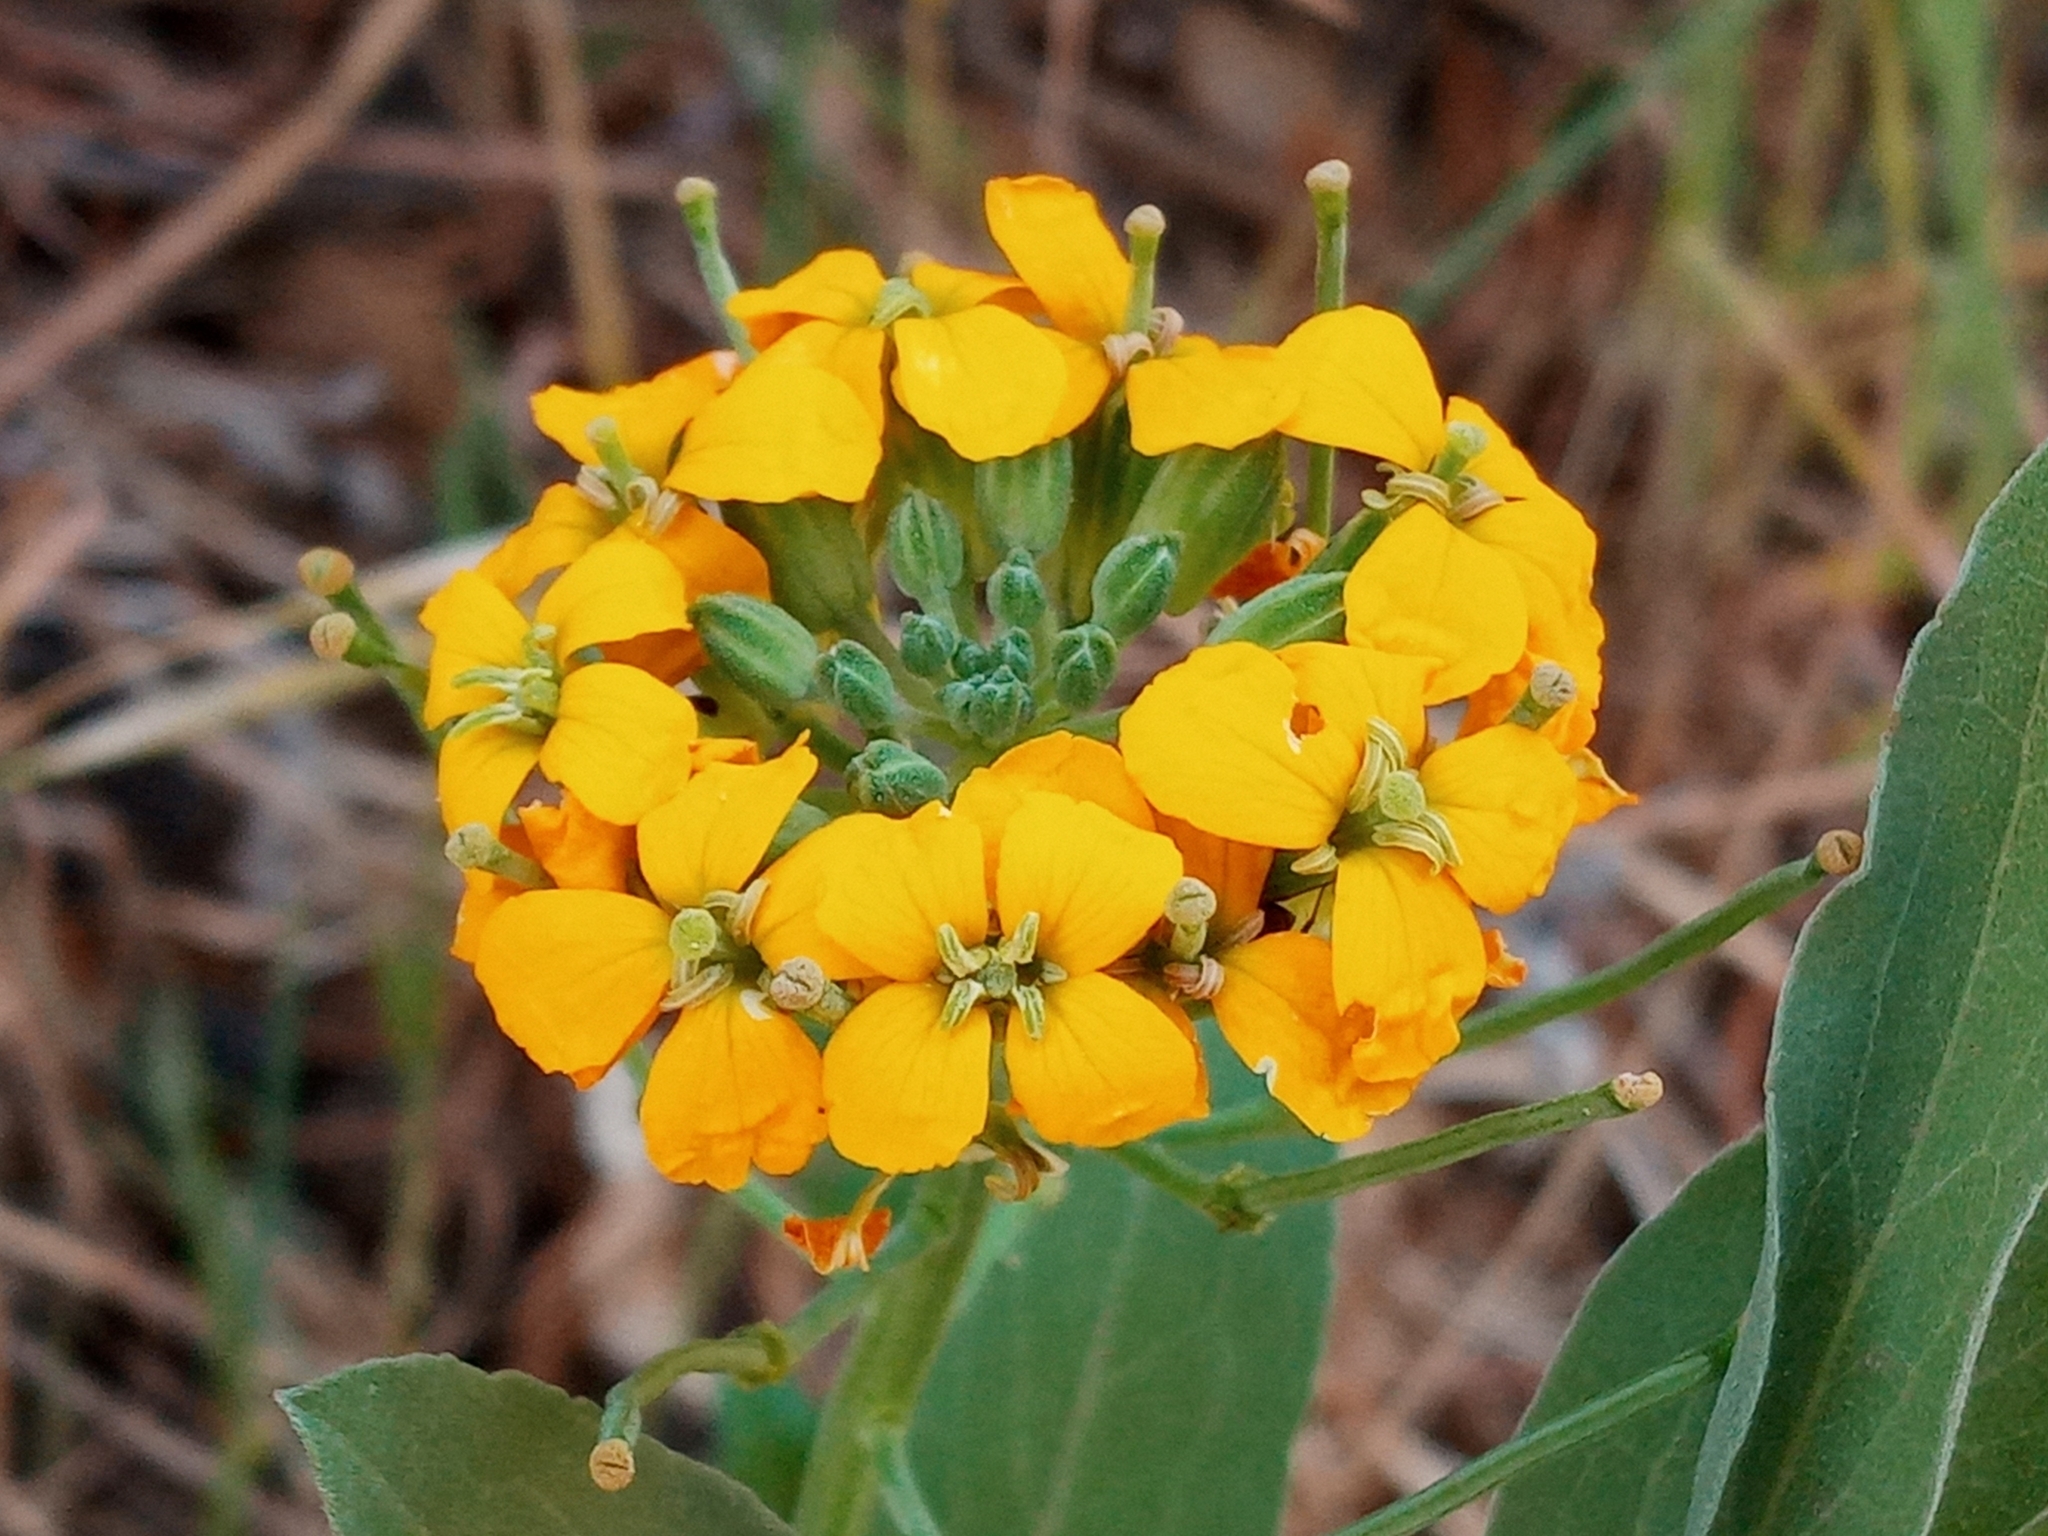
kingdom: Plantae
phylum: Tracheophyta
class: Magnoliopsida
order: Brassicales
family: Brassicaceae
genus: Erysimum
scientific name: Erysimum capitatum
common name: Western wallflower
